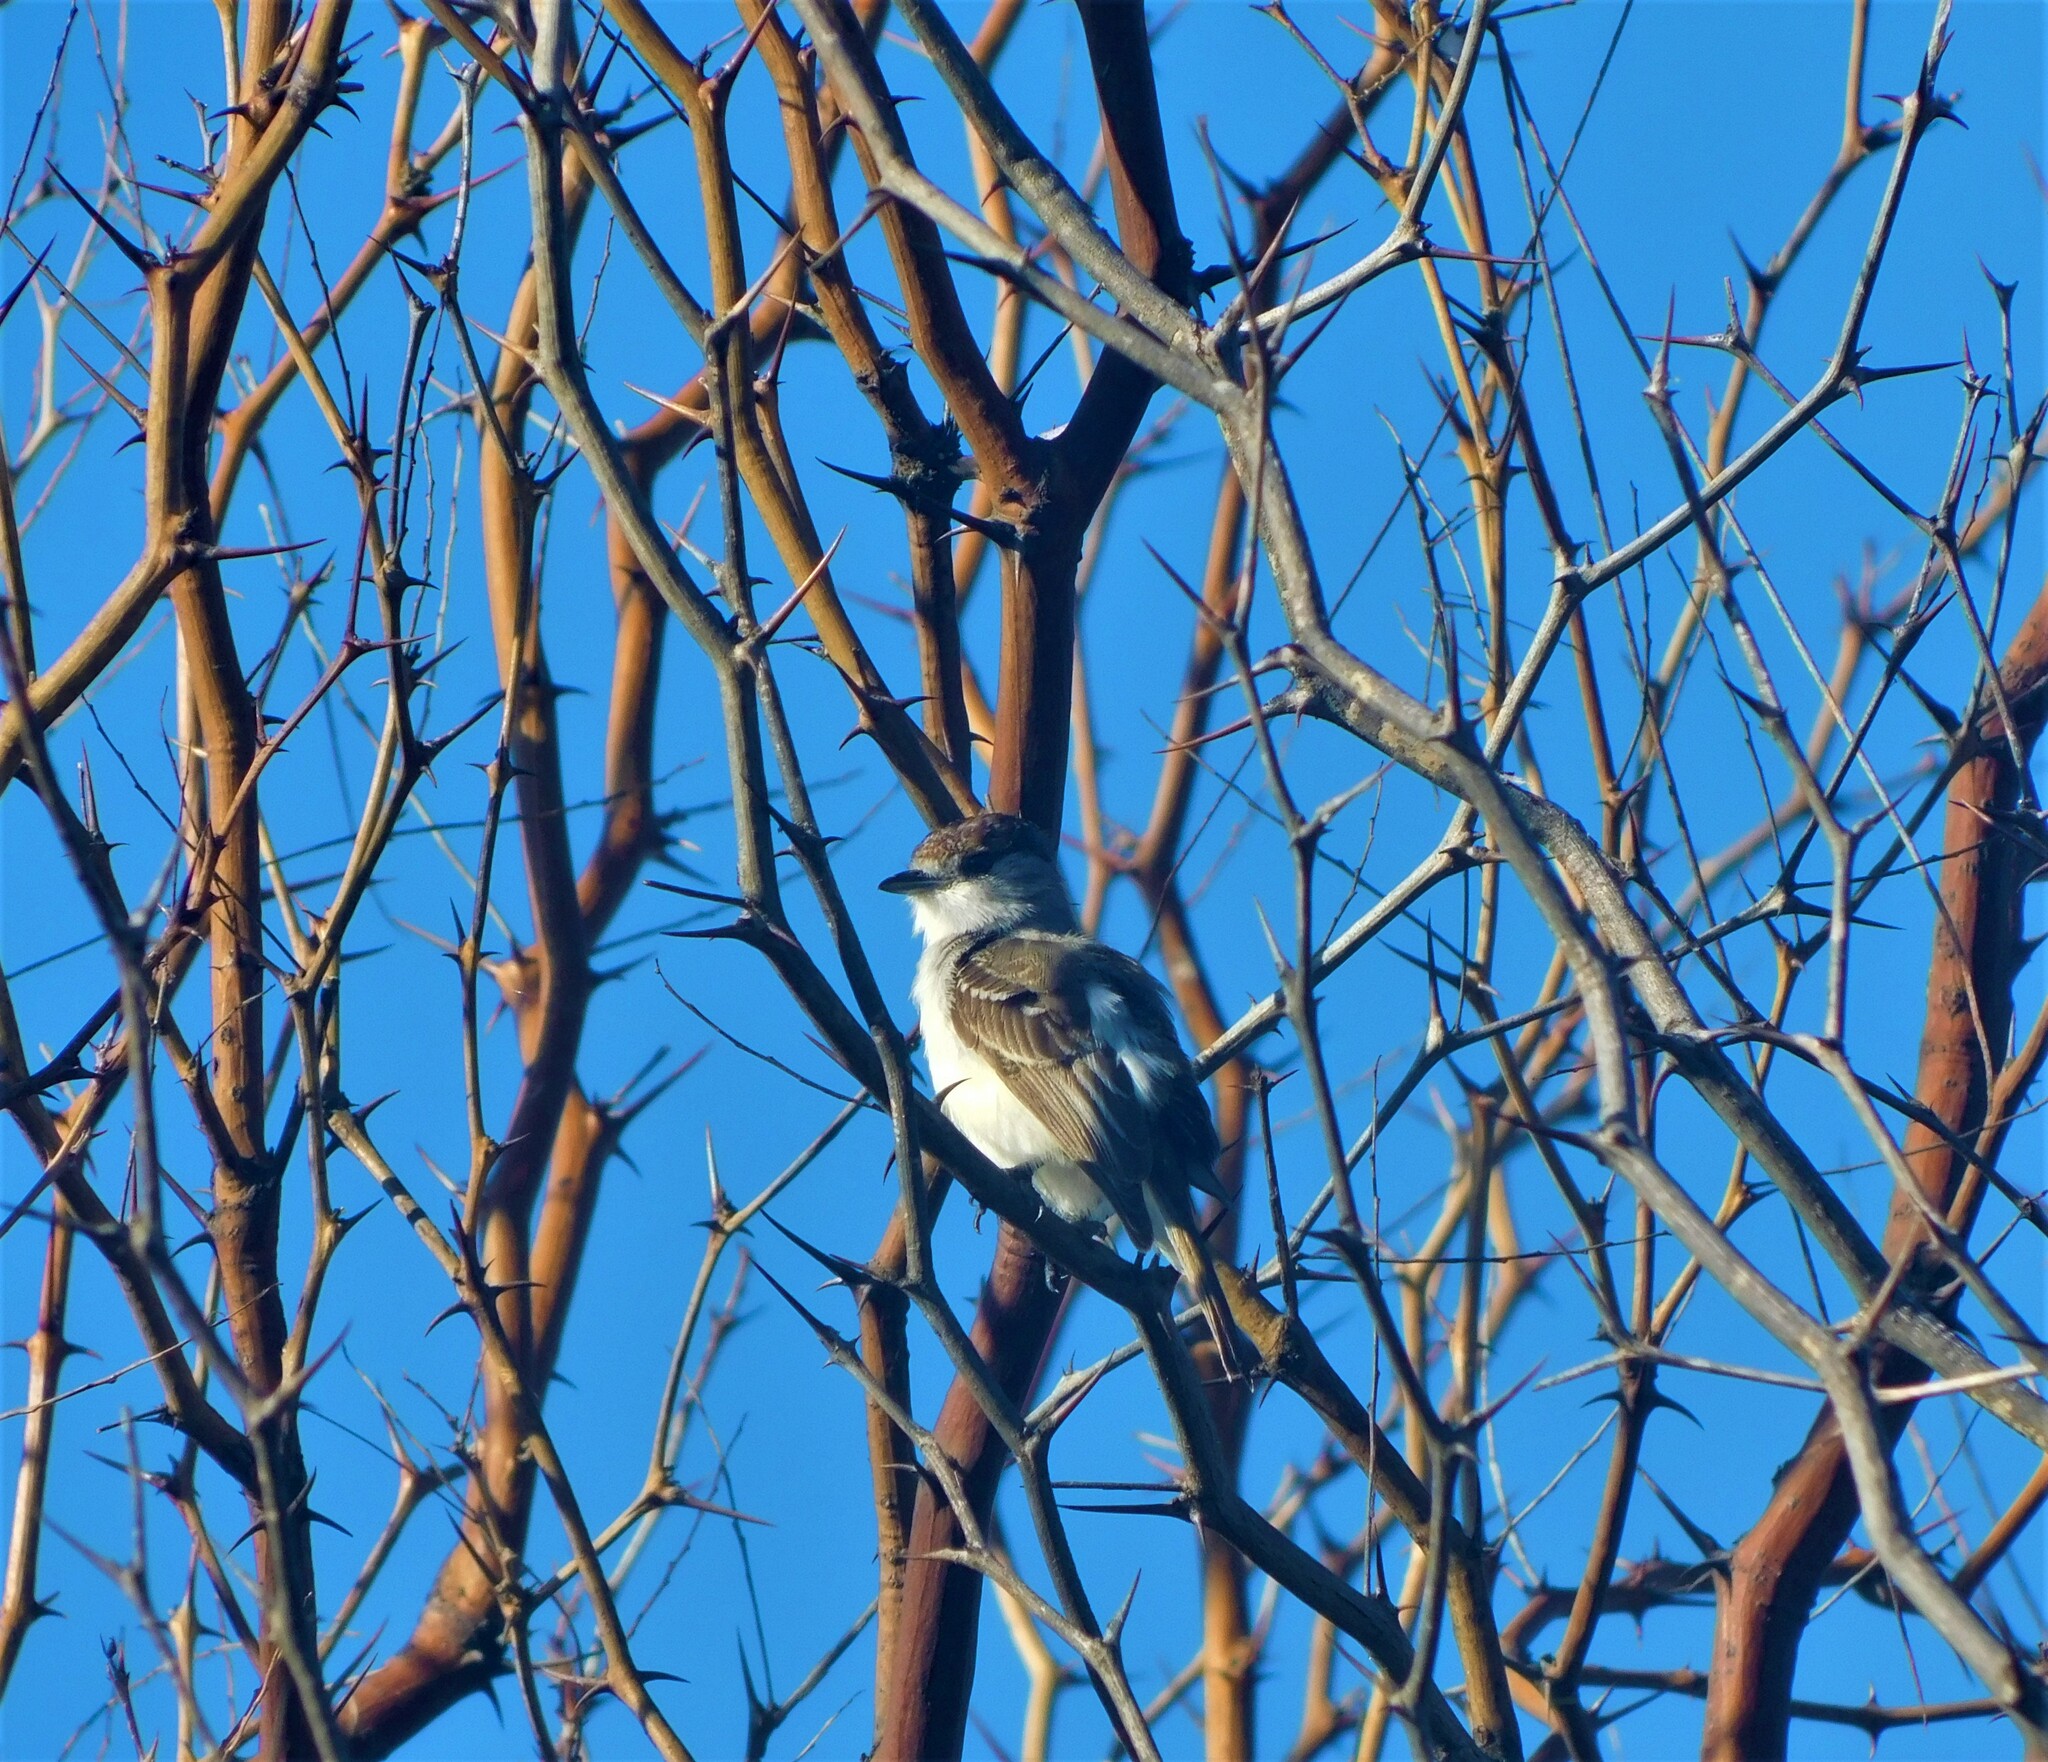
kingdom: Animalia
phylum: Chordata
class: Aves
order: Passeriformes
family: Cotingidae
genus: Xenopsaris
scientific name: Xenopsaris albinucha
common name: White-naped xenopsaris
